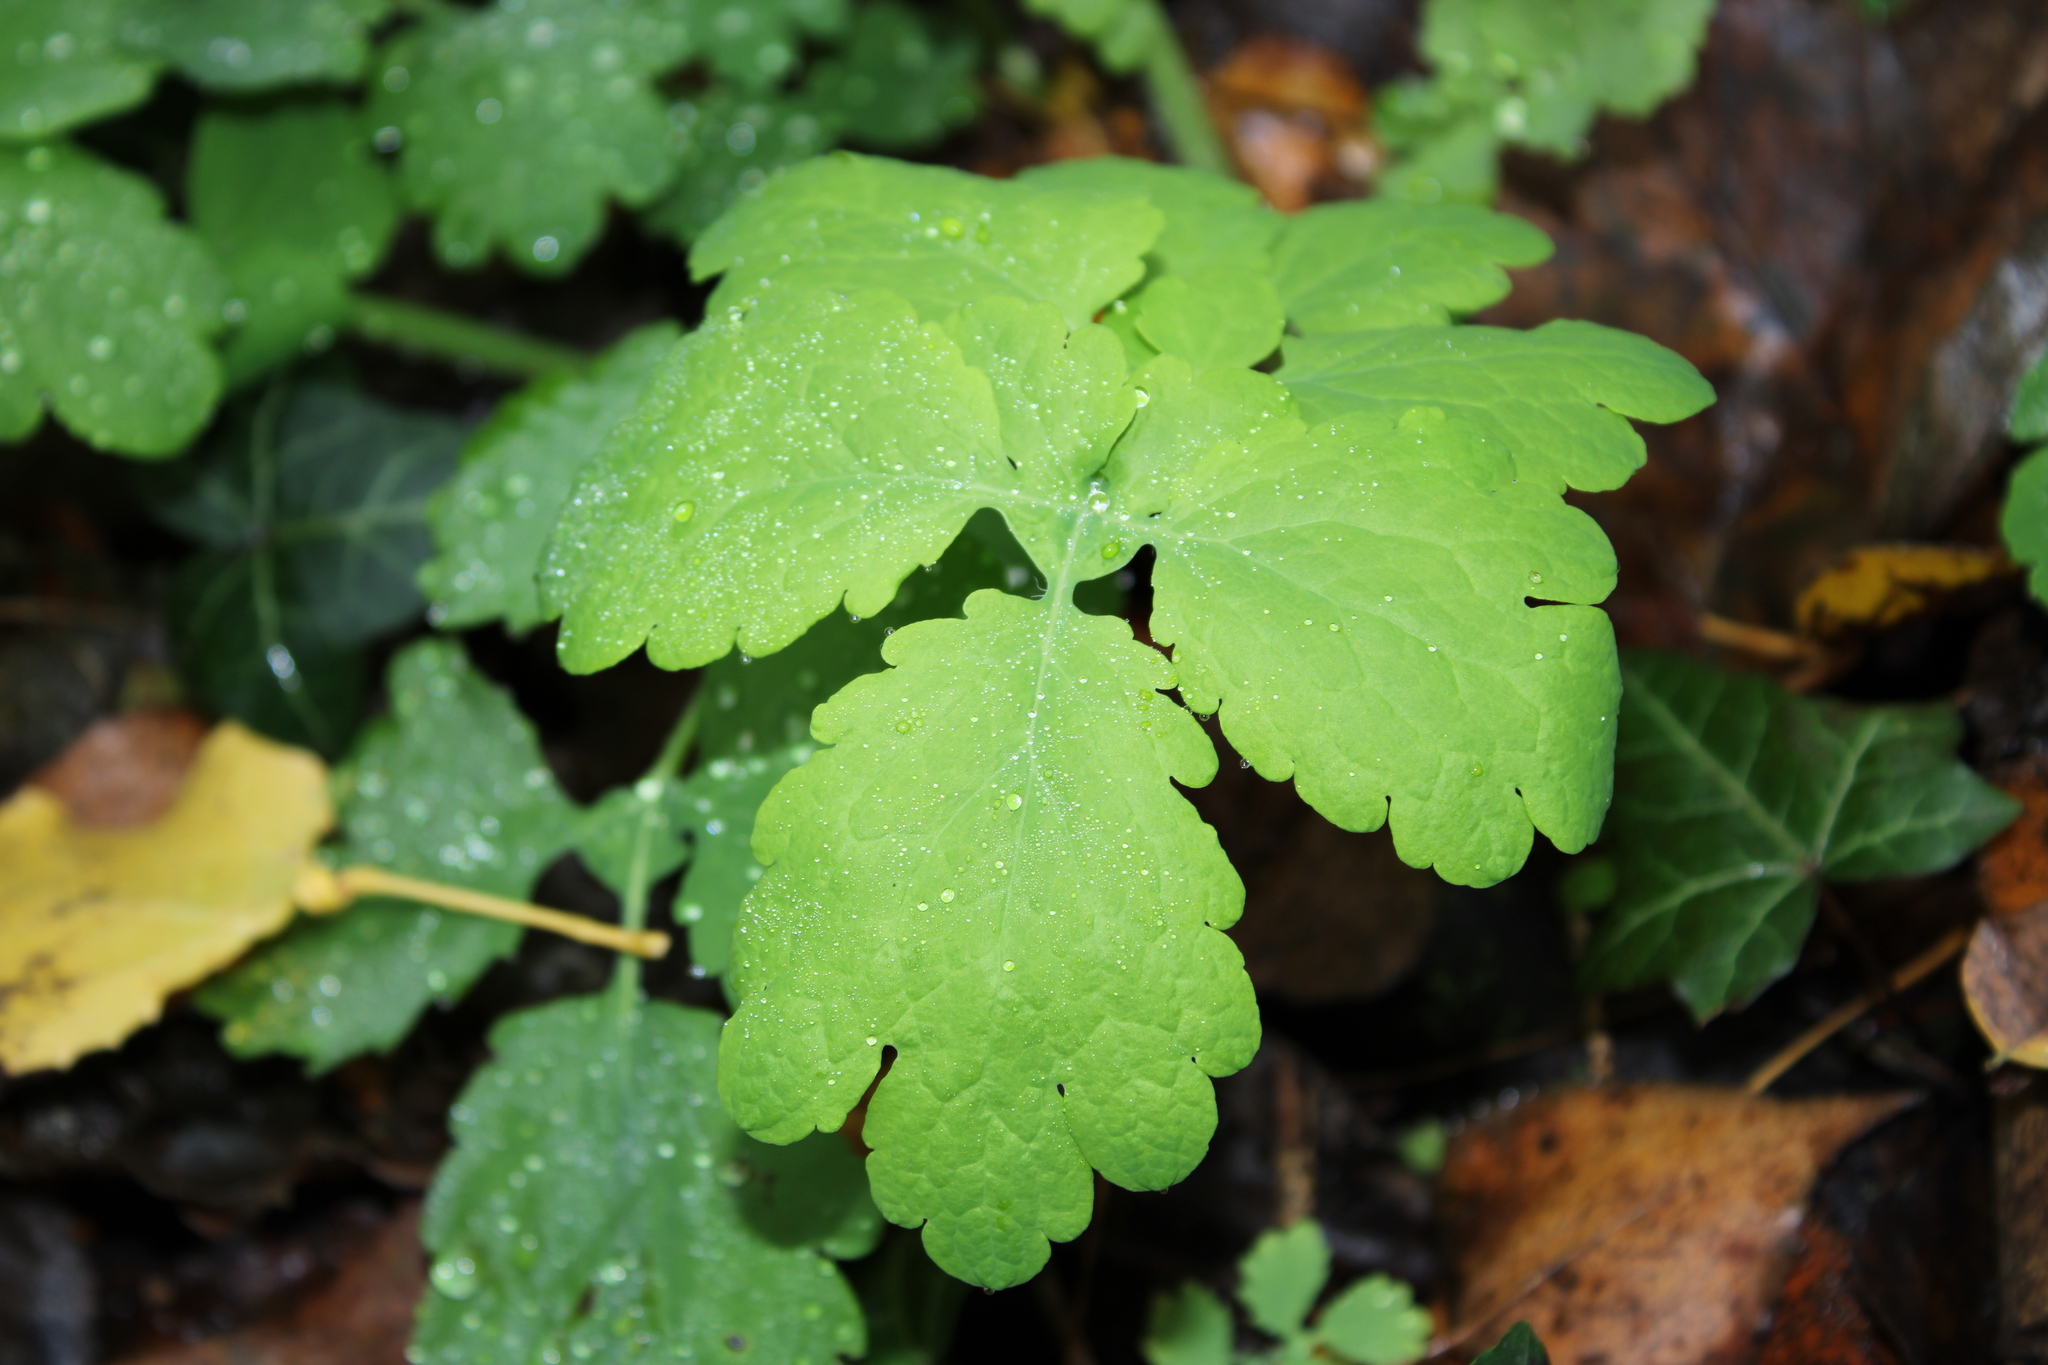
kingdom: Plantae
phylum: Tracheophyta
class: Magnoliopsida
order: Ranunculales
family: Papaveraceae
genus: Chelidonium
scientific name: Chelidonium majus
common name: Greater celandine
